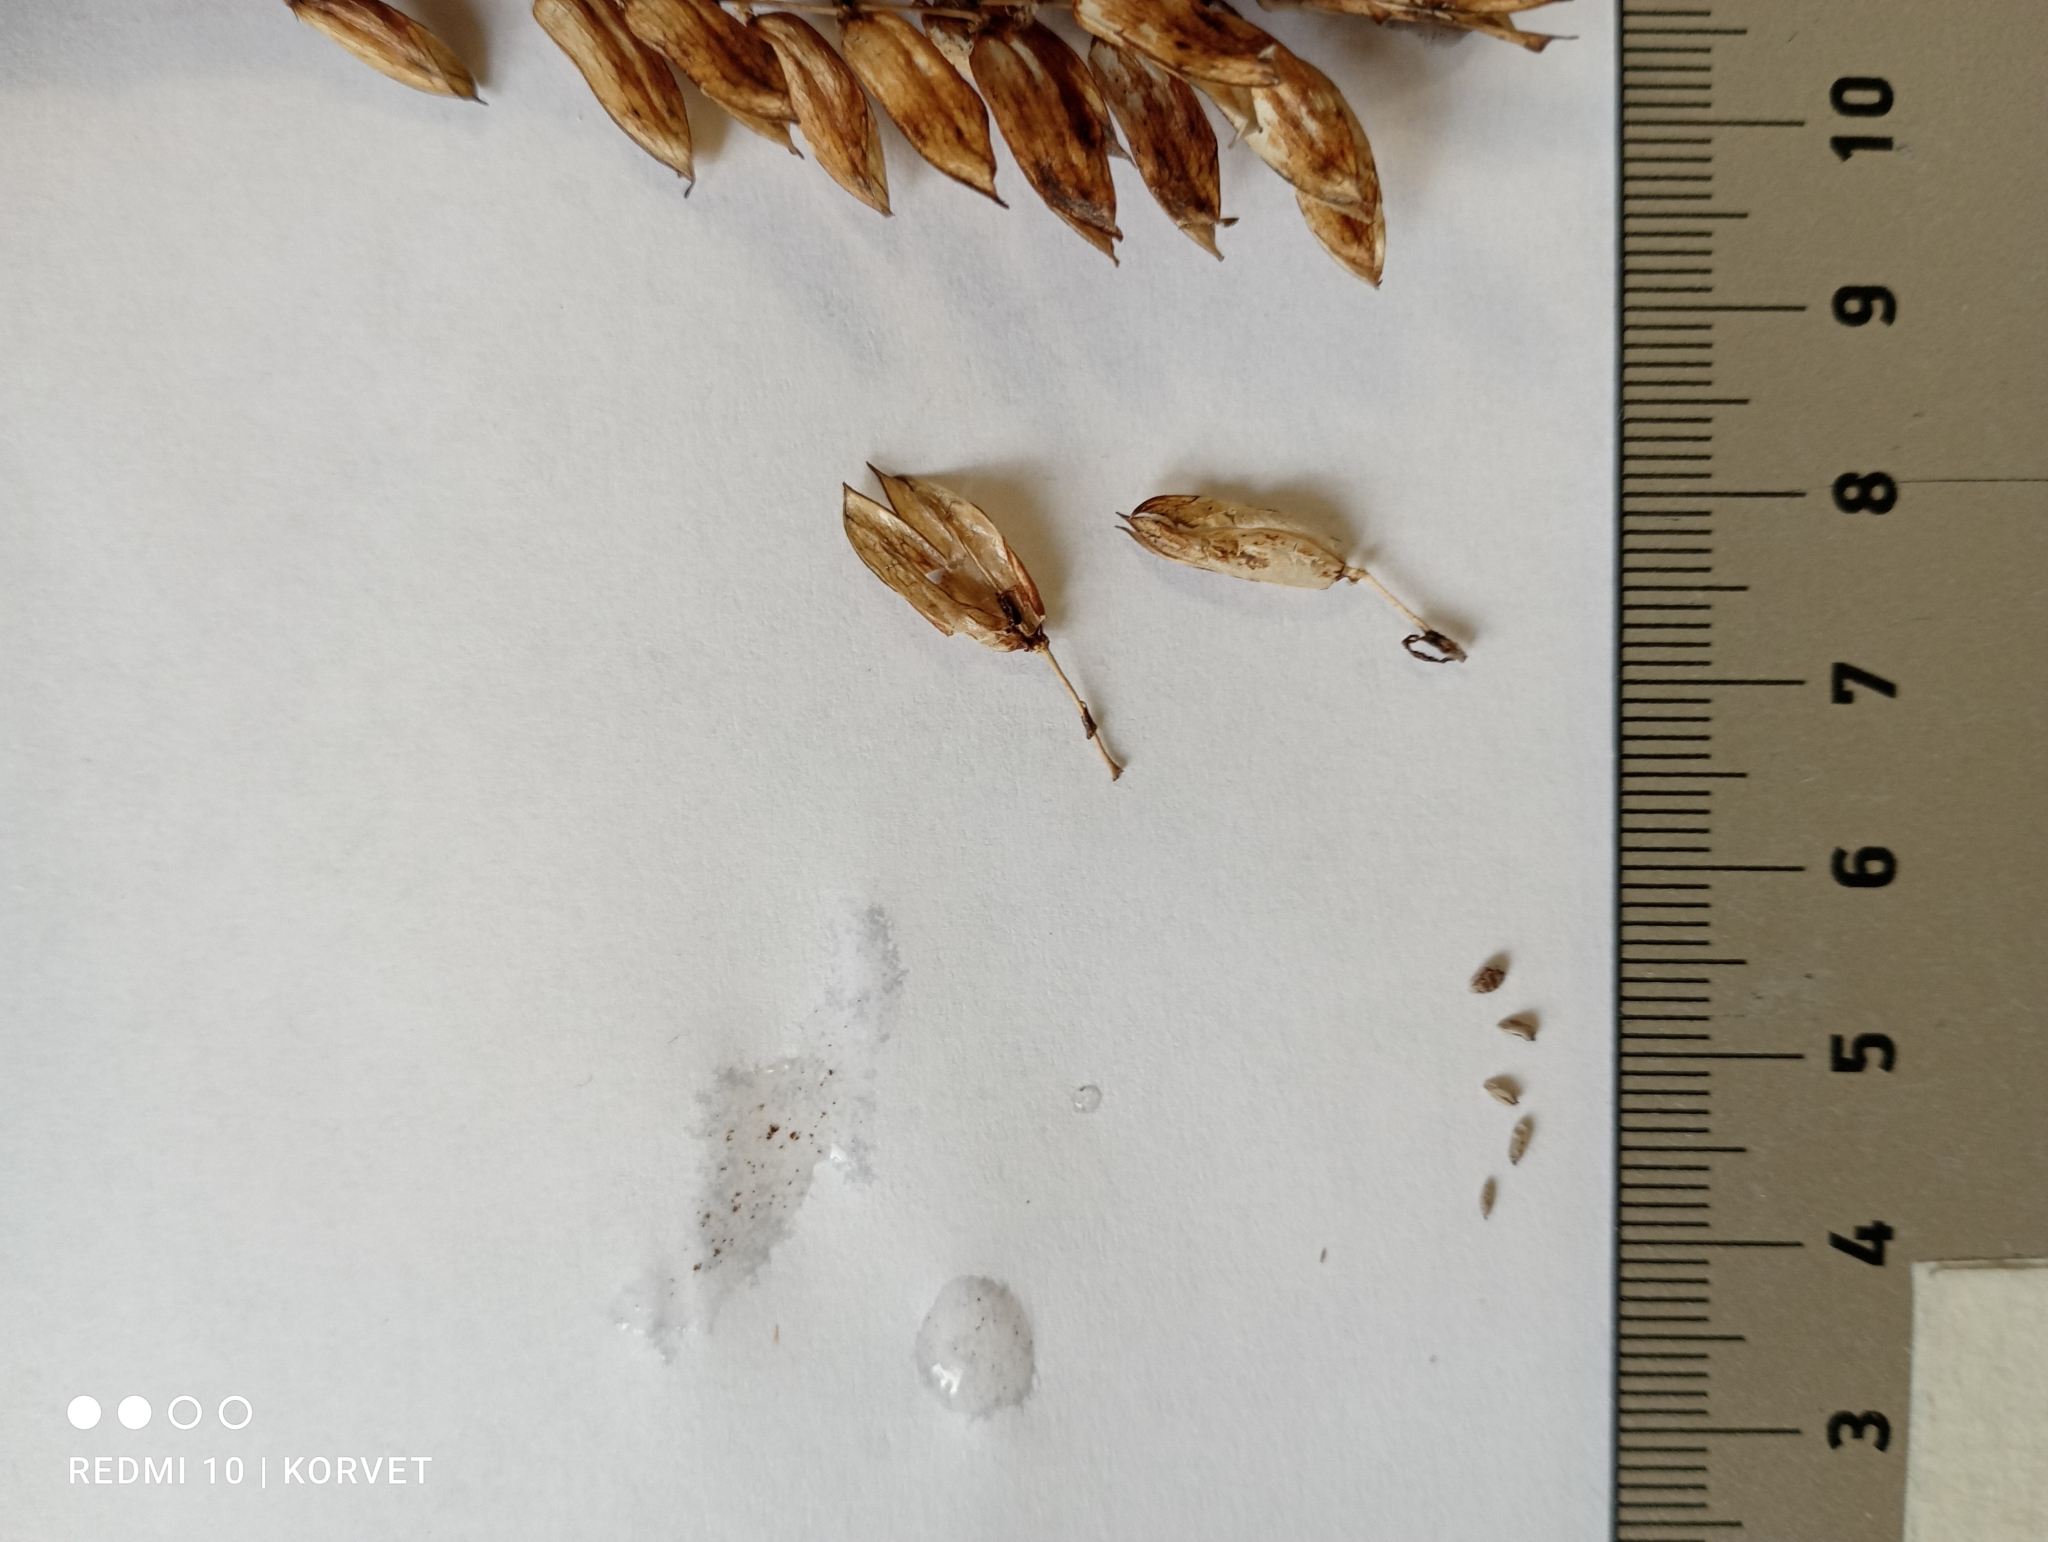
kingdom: Plantae
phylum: Tracheophyta
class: Magnoliopsida
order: Lamiales
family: Orobanchaceae
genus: Pedicularis
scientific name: Pedicularis oederi
